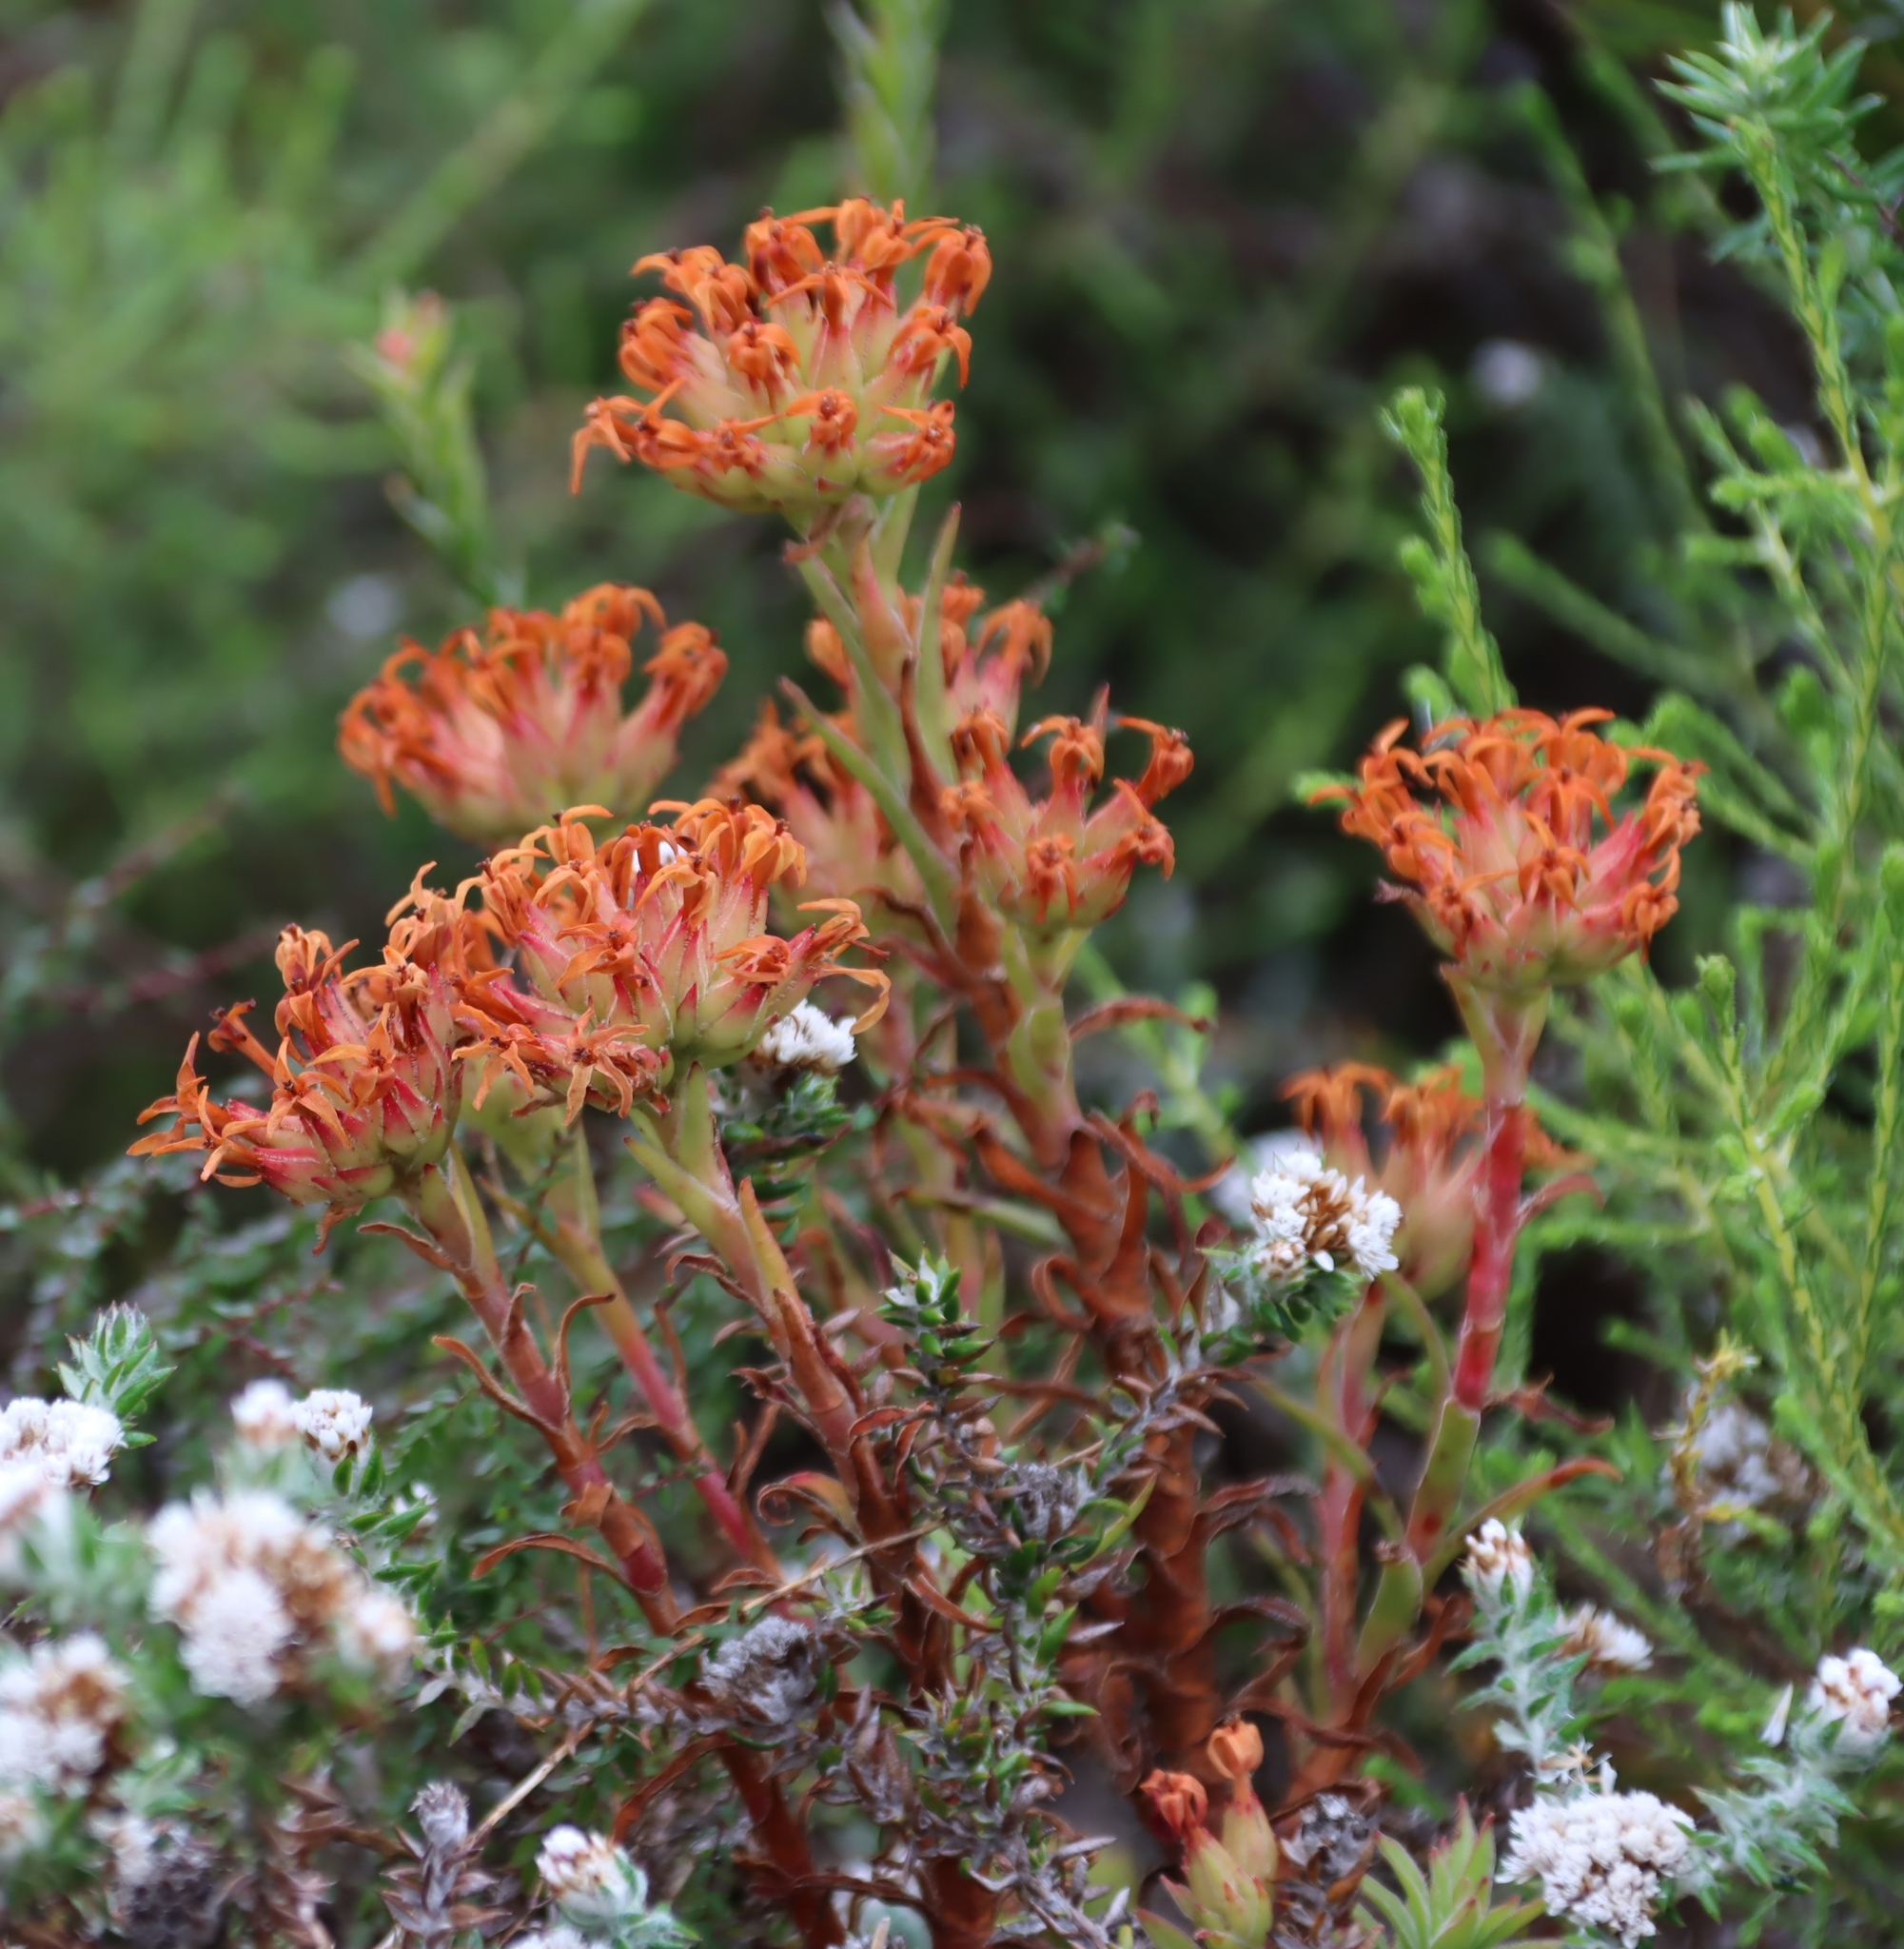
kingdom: Plantae
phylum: Tracheophyta
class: Magnoliopsida
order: Saxifragales
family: Crassulaceae
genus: Crassula
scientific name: Crassula fascicularis
